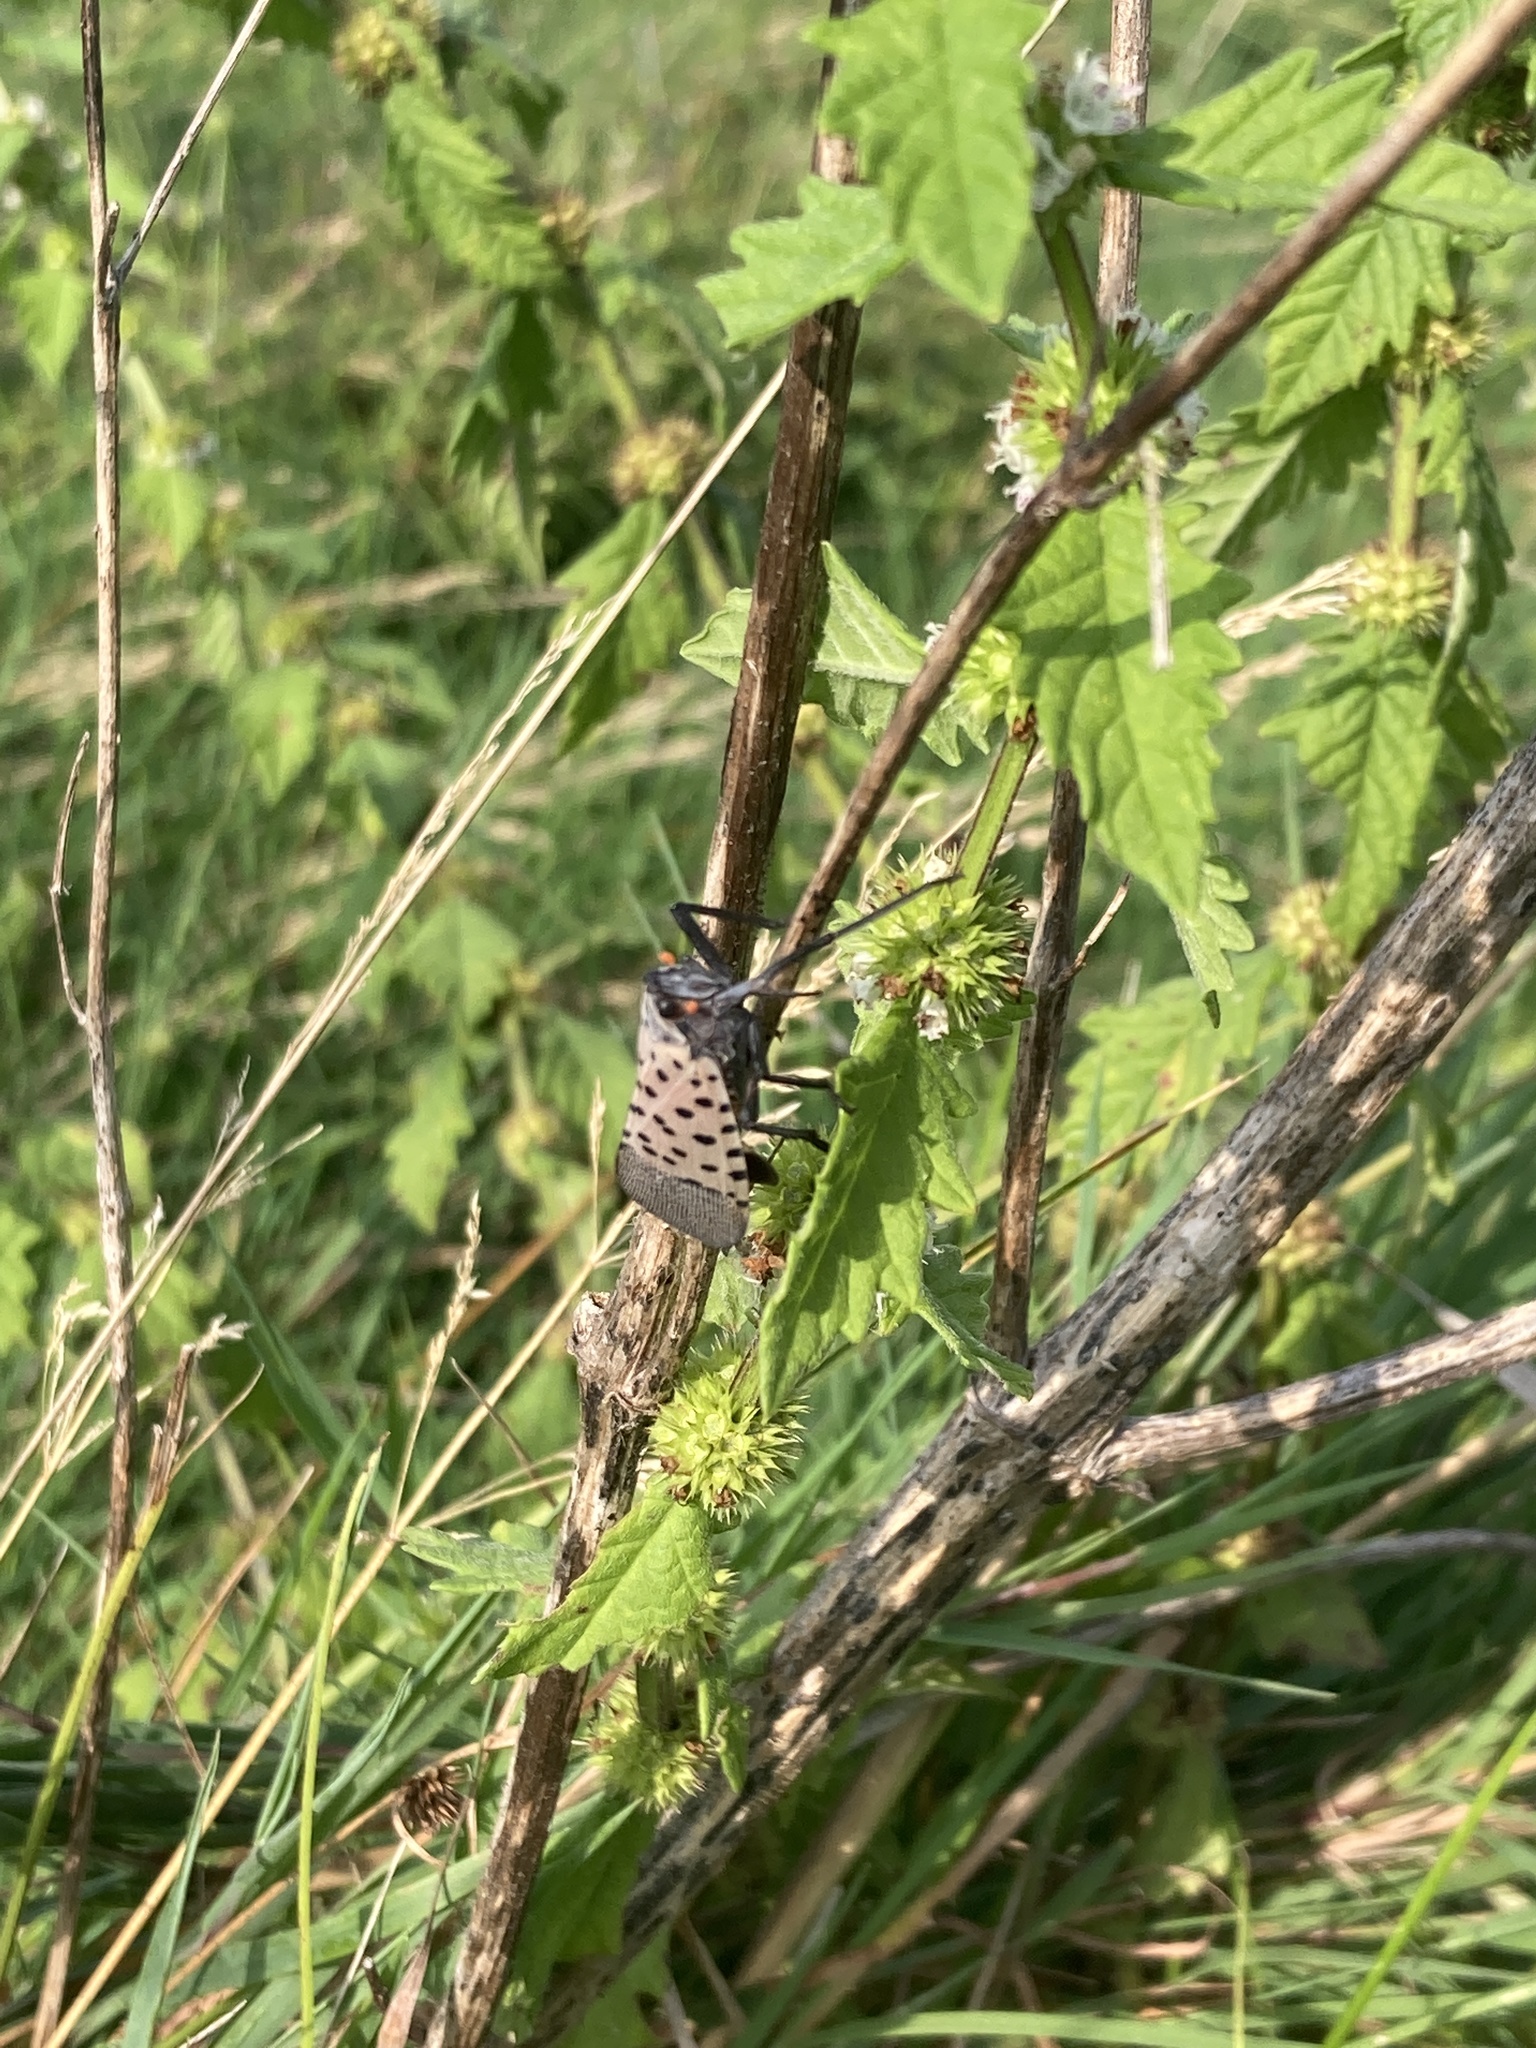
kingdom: Animalia
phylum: Arthropoda
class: Insecta
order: Hemiptera
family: Fulgoridae
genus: Lycorma
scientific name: Lycorma delicatula
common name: Spotted lanternfly
